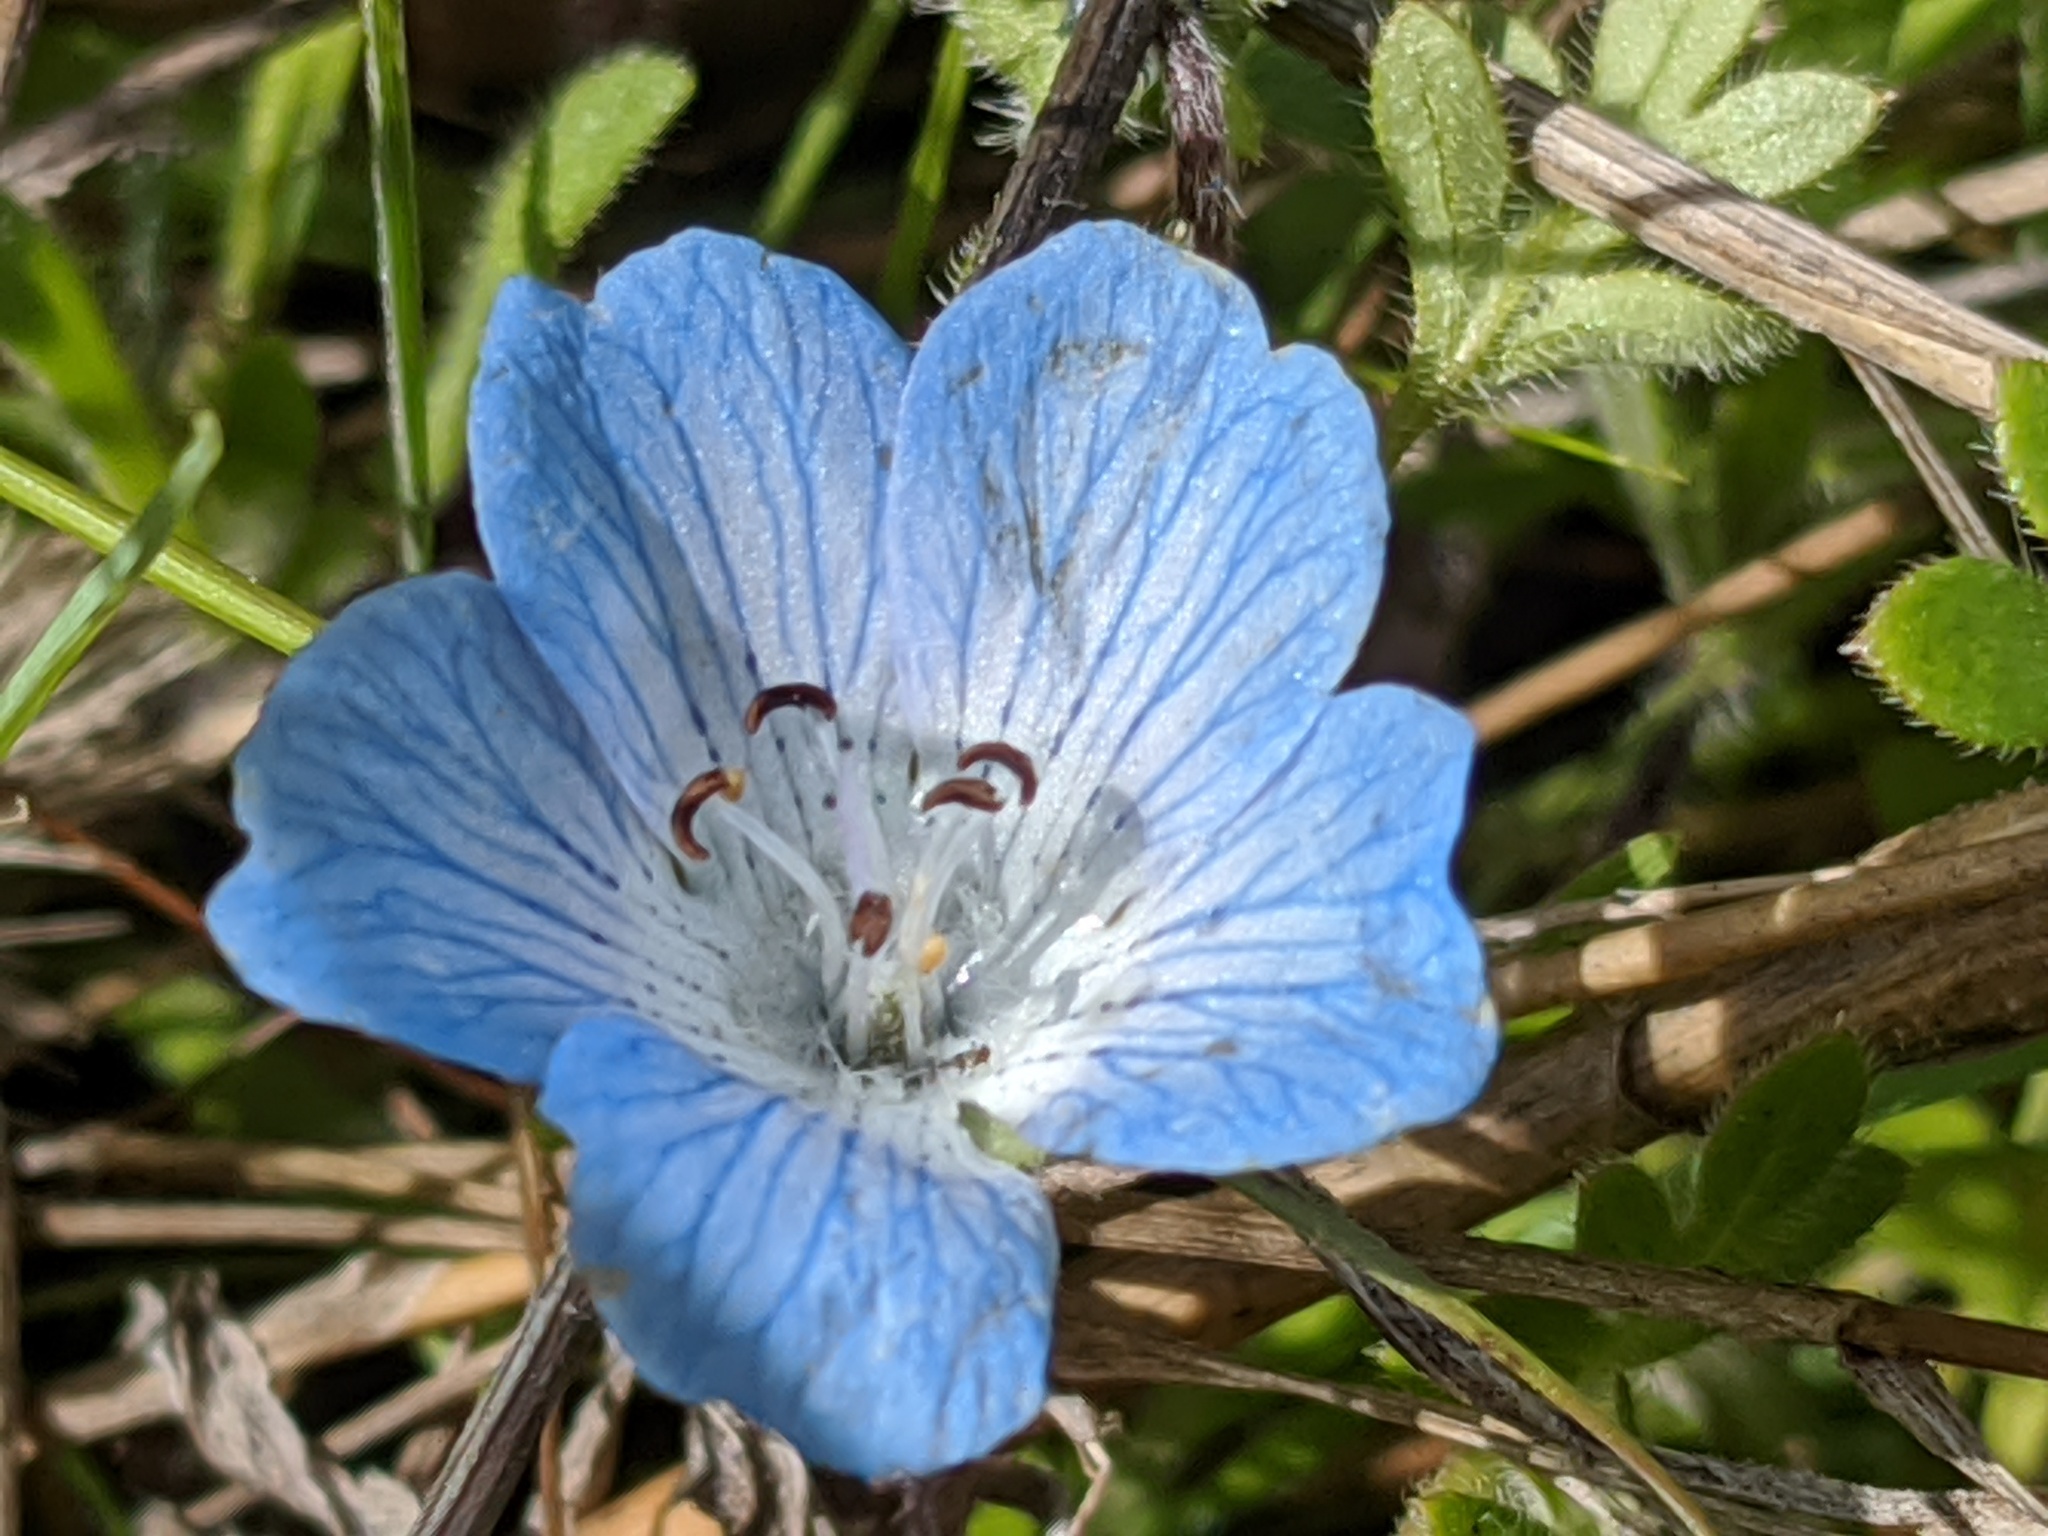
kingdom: Plantae
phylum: Tracheophyta
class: Magnoliopsida
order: Boraginales
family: Hydrophyllaceae
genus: Nemophila
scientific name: Nemophila menziesii
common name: Baby's-blue-eyes
